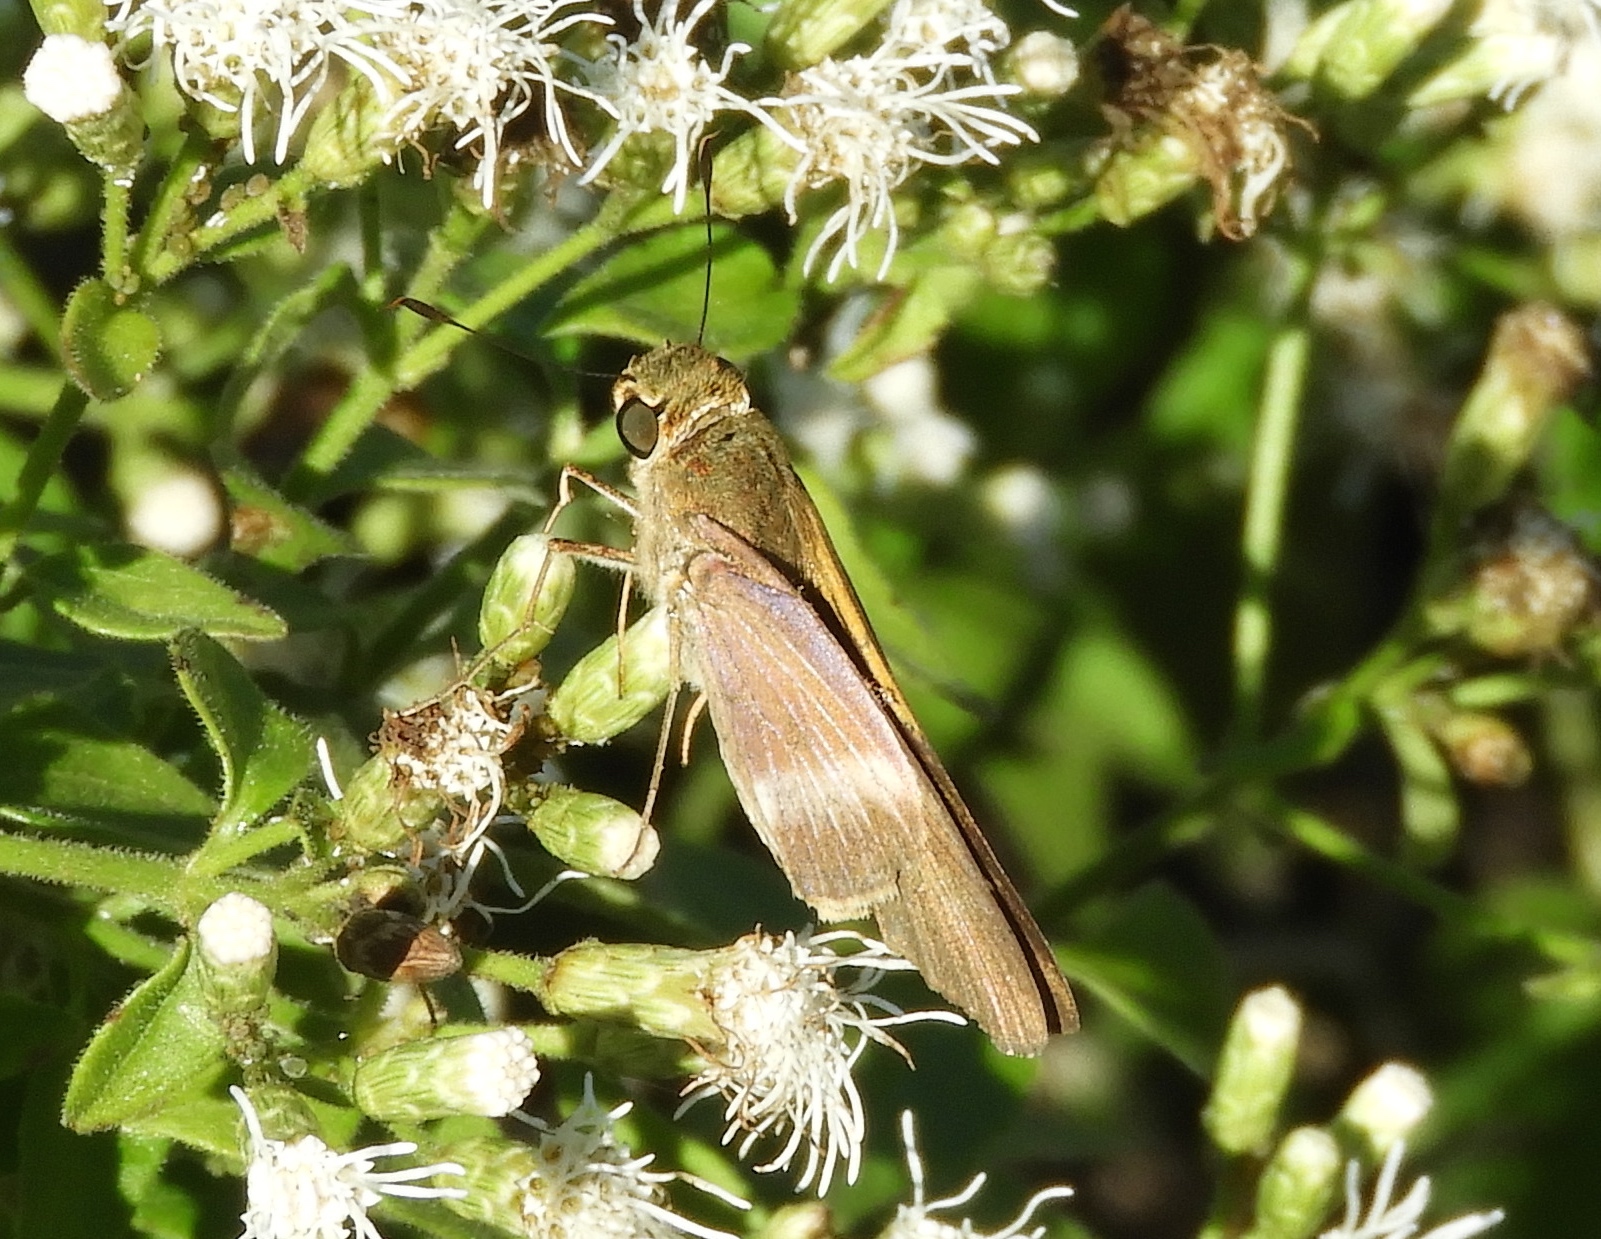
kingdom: Animalia
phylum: Arthropoda
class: Insecta
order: Lepidoptera
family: Hesperiidae
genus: Panoquina
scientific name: Panoquina fusina
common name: Evans' skipper
